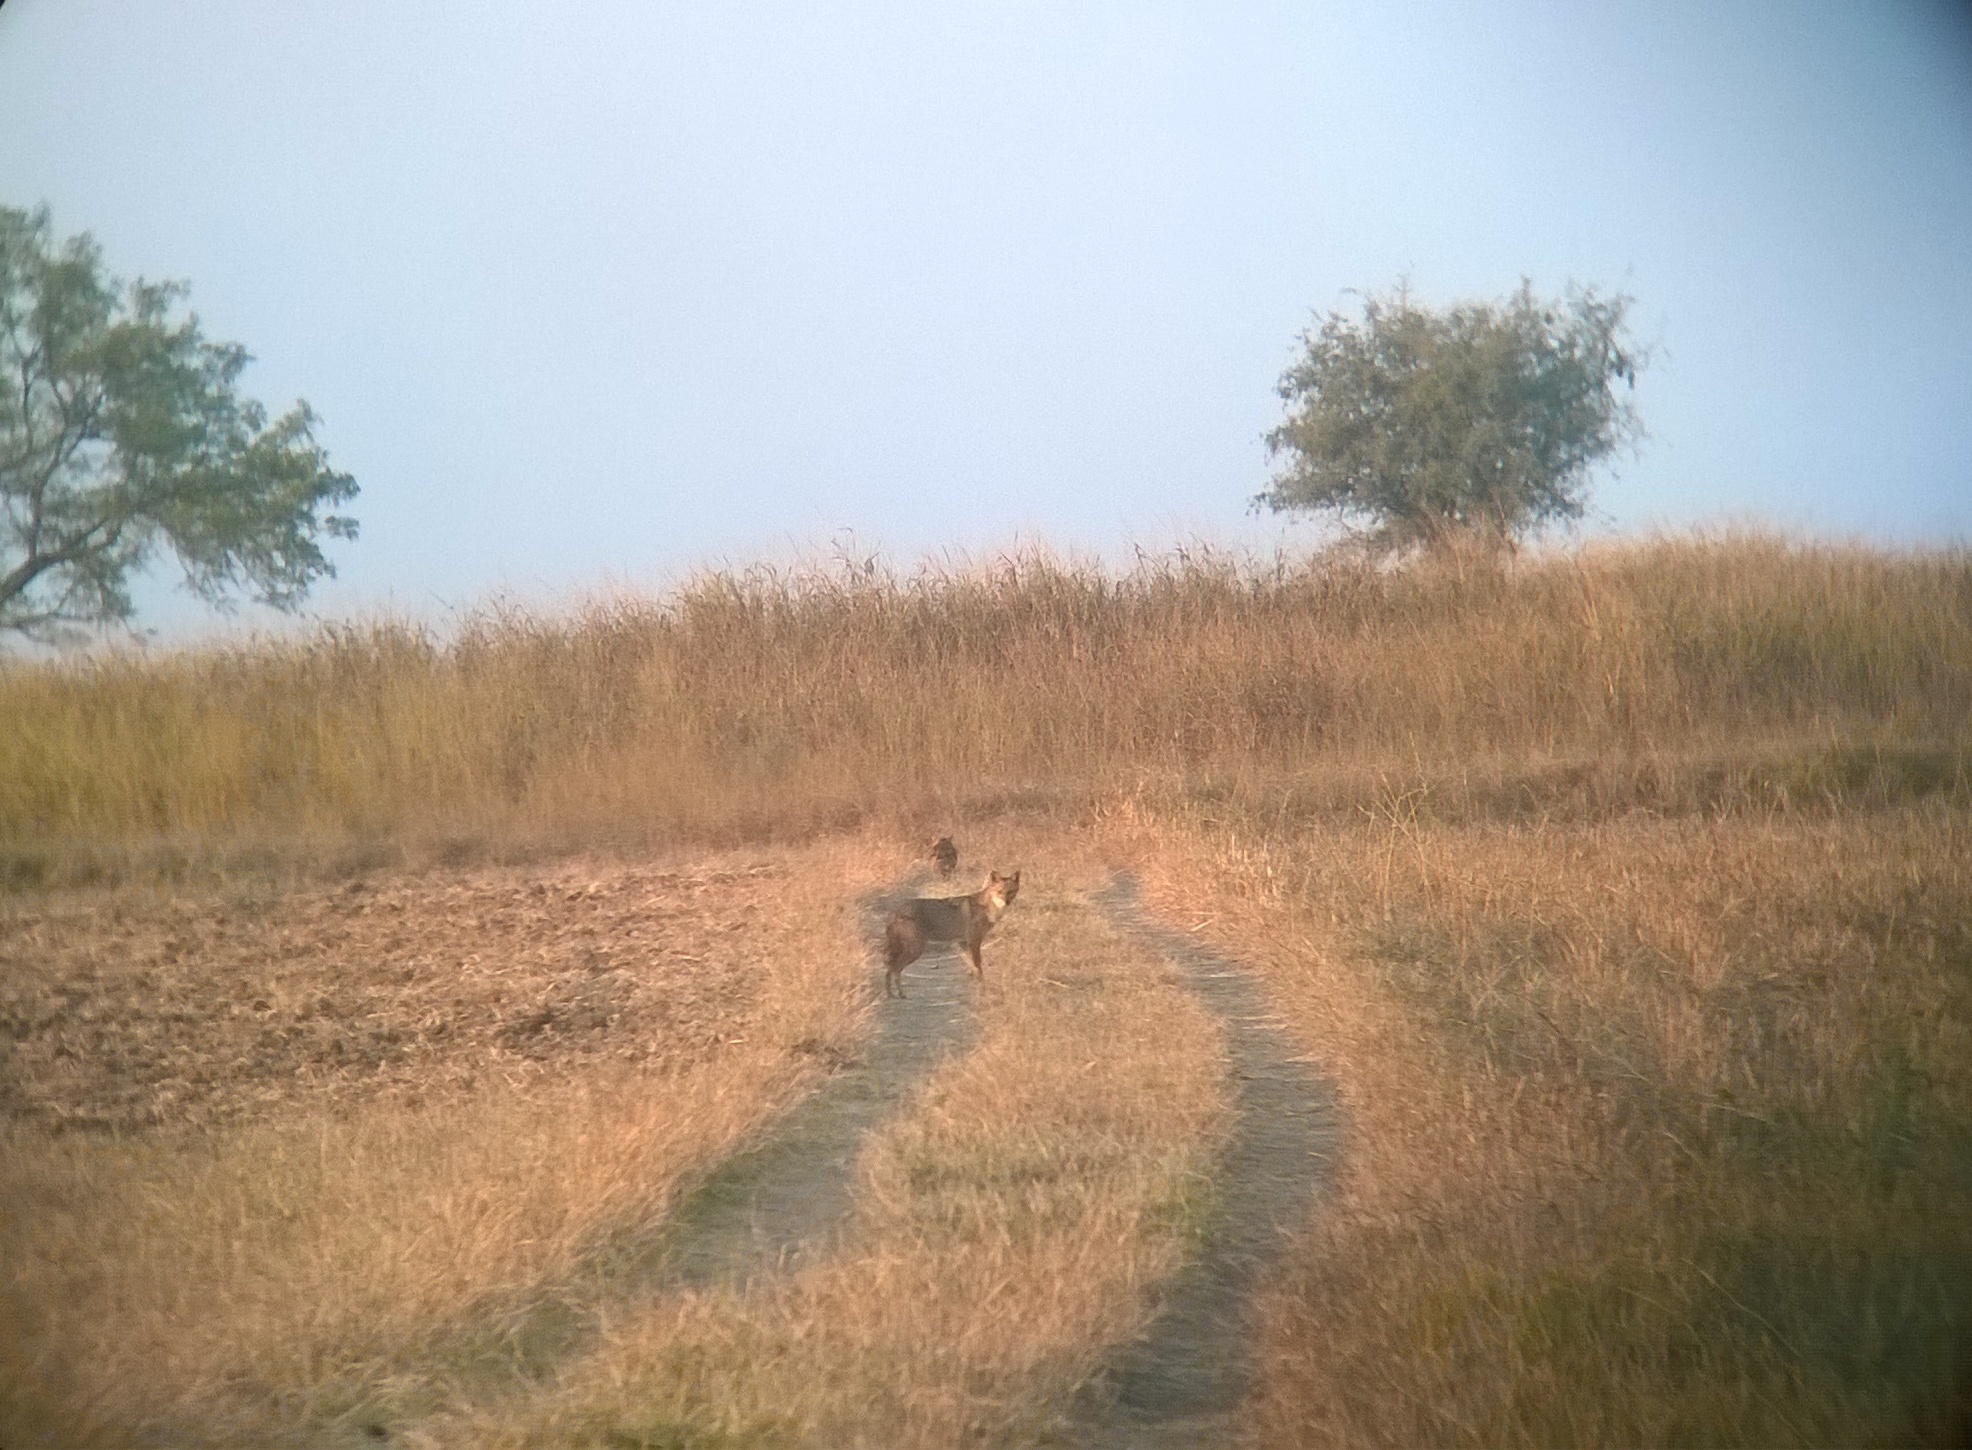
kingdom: Animalia
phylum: Chordata
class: Mammalia
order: Carnivora
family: Canidae
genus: Canis
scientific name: Canis aureus
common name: Golden jackal
